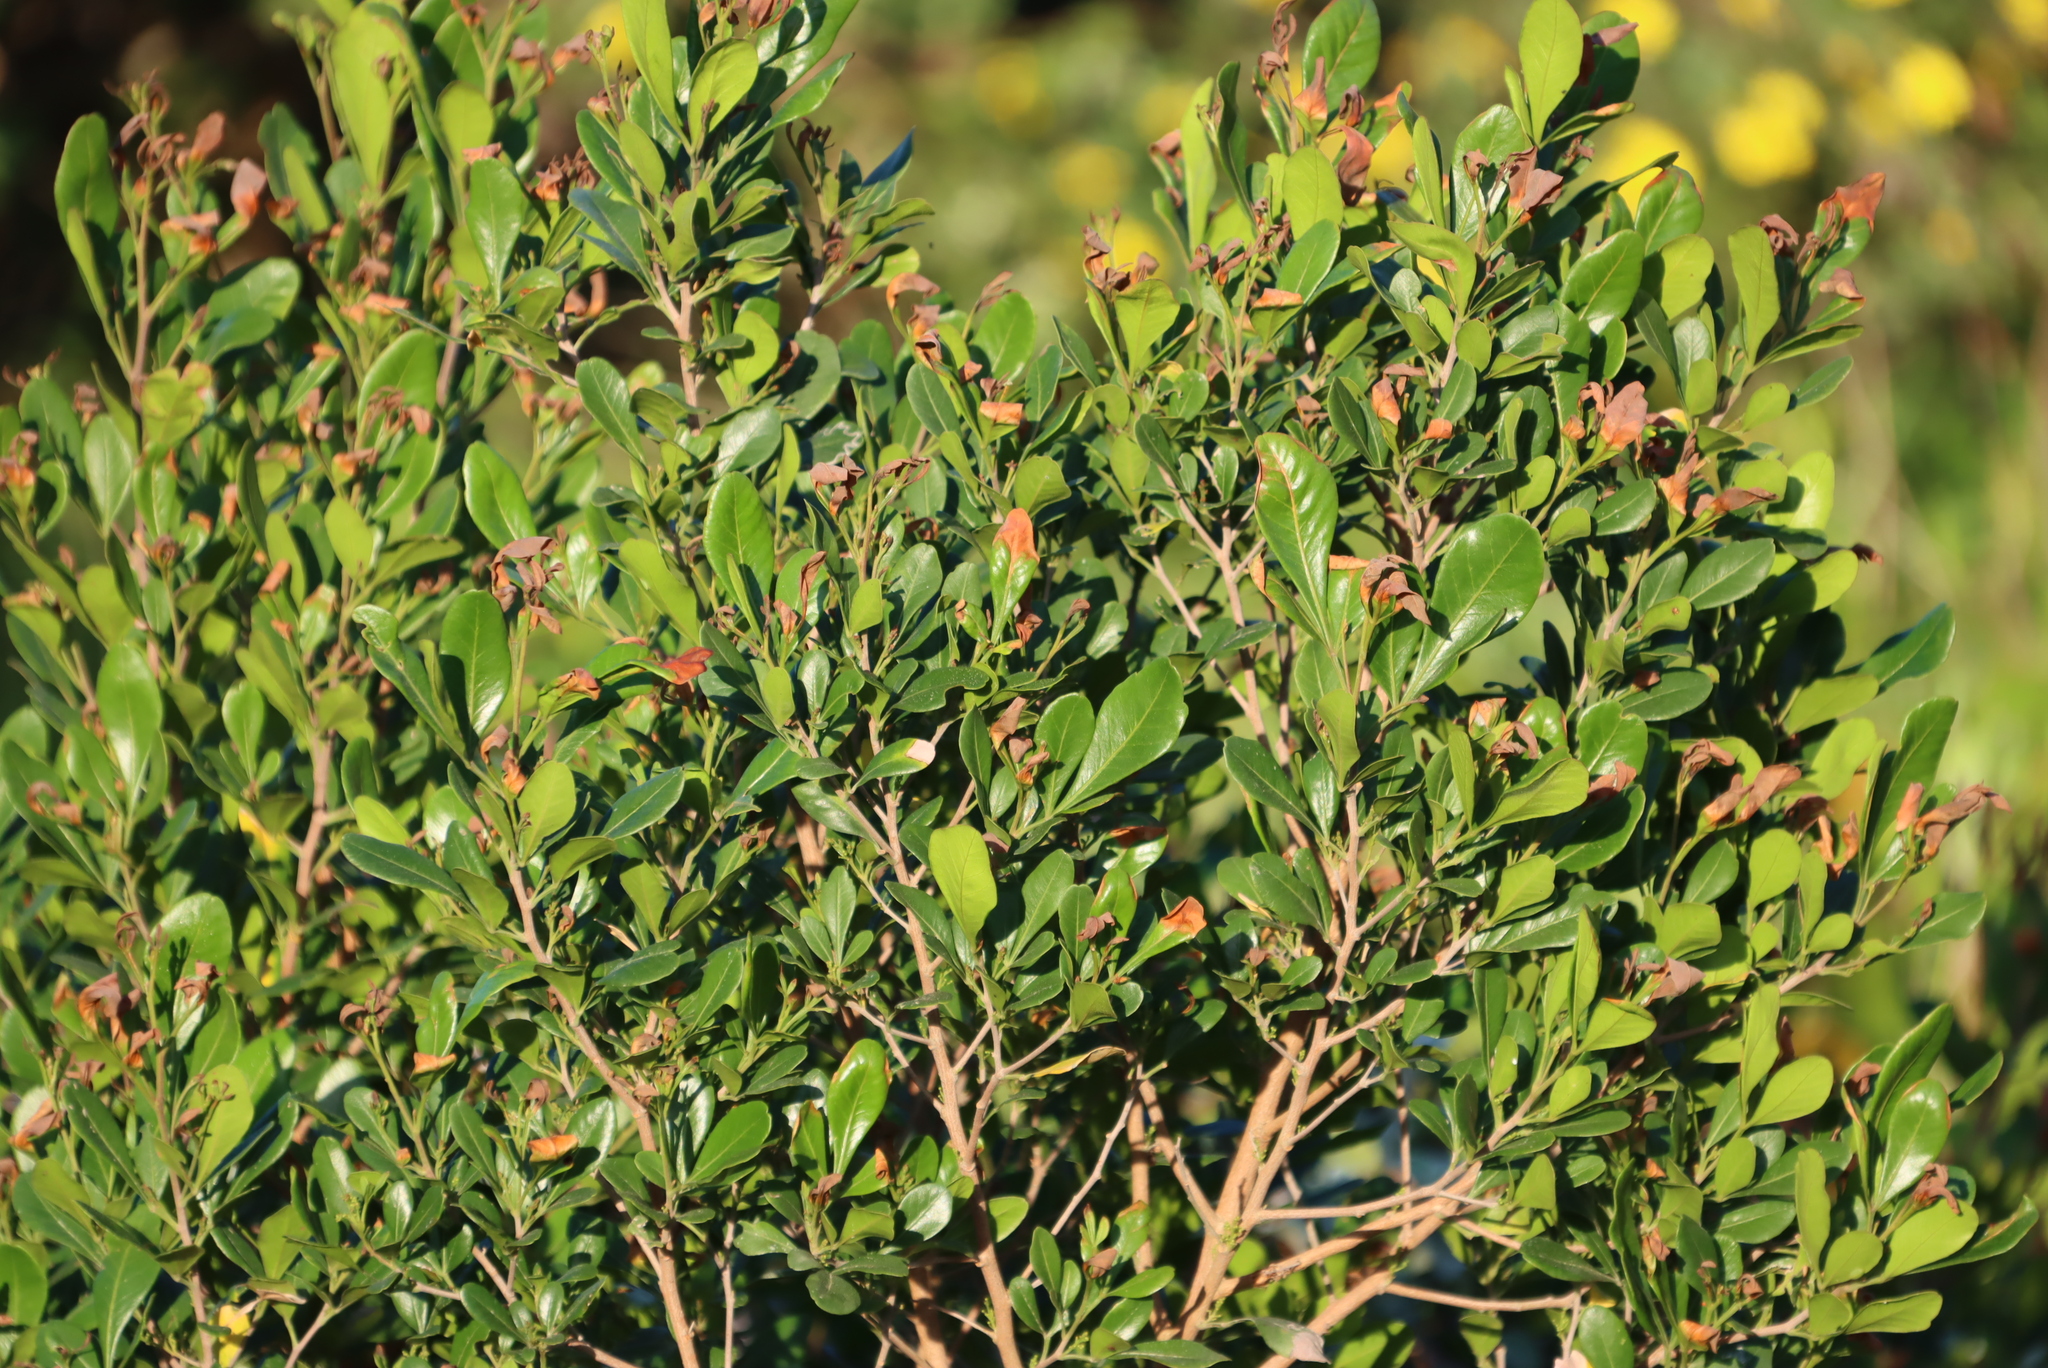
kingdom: Plantae
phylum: Tracheophyta
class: Magnoliopsida
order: Sapindales
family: Anacardiaceae
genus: Searsia
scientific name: Searsia lucida
